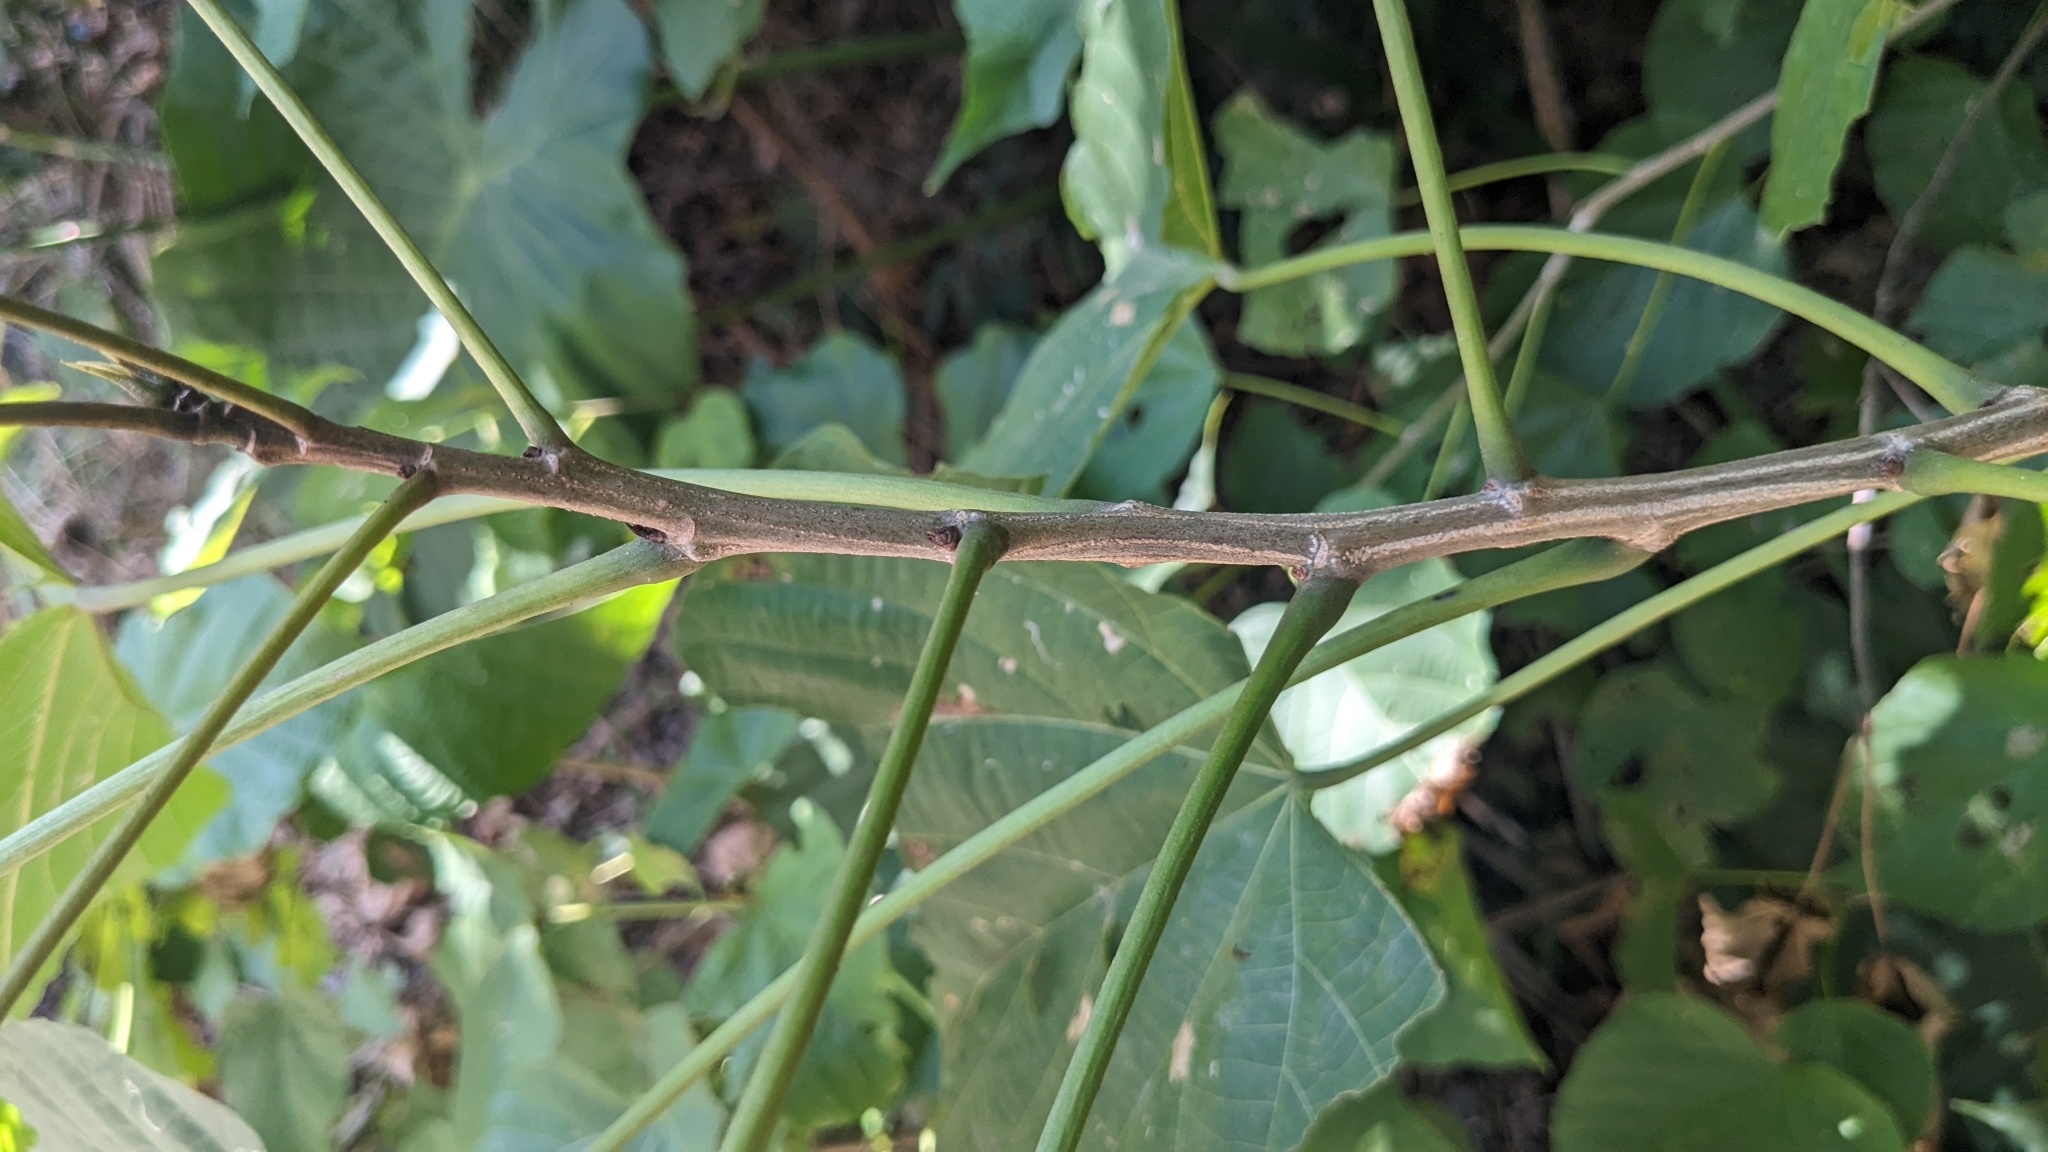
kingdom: Plantae
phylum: Tracheophyta
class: Magnoliopsida
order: Malvales
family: Malvaceae
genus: Kleinhovia
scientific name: Kleinhovia hospita
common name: Guest-tree
